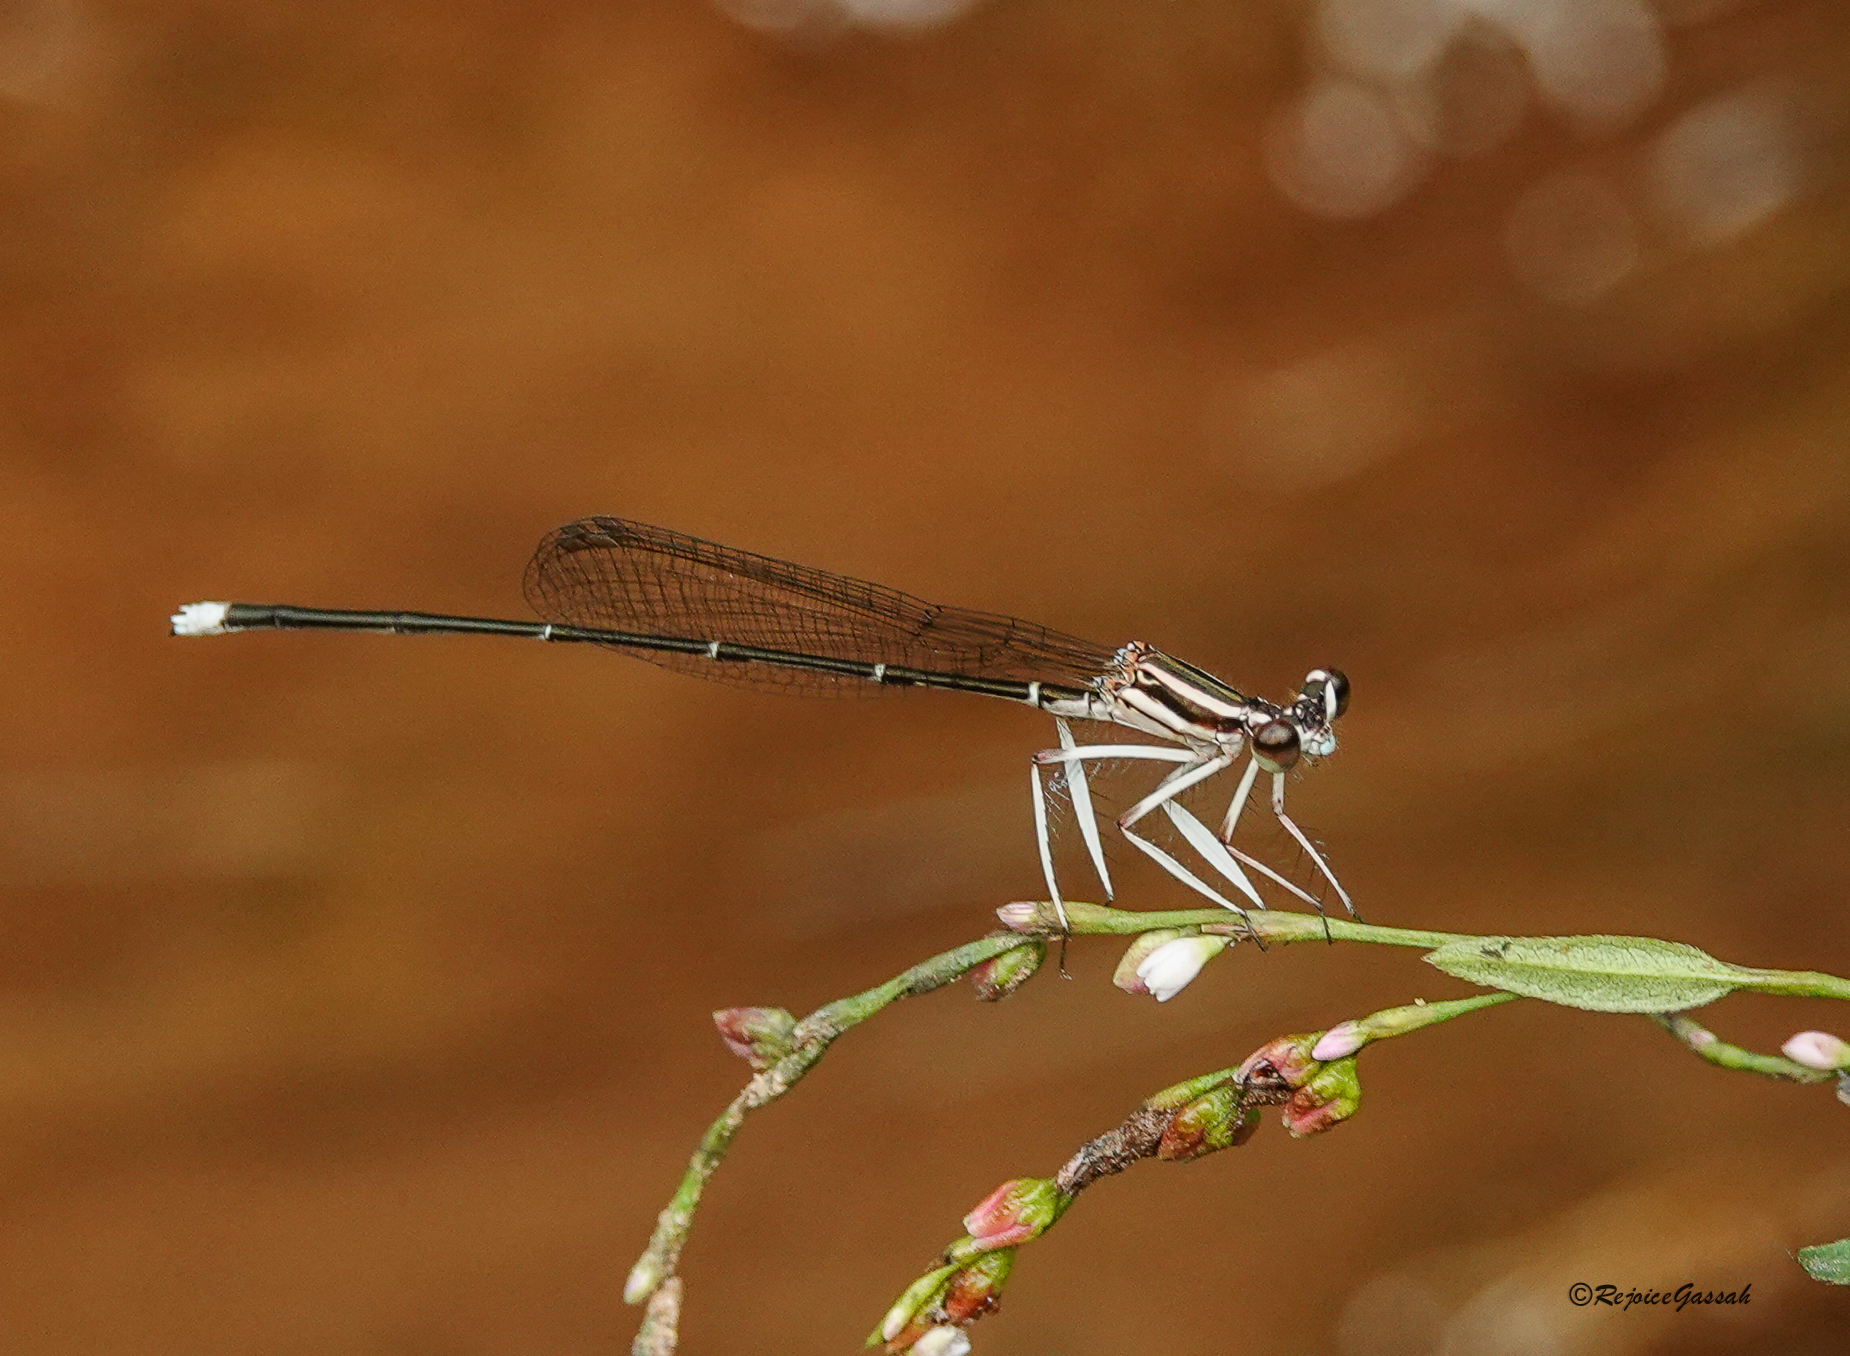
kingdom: Animalia
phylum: Arthropoda
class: Insecta
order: Odonata
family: Platycnemididae
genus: Pseudocopera
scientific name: Pseudocopera ciliata
